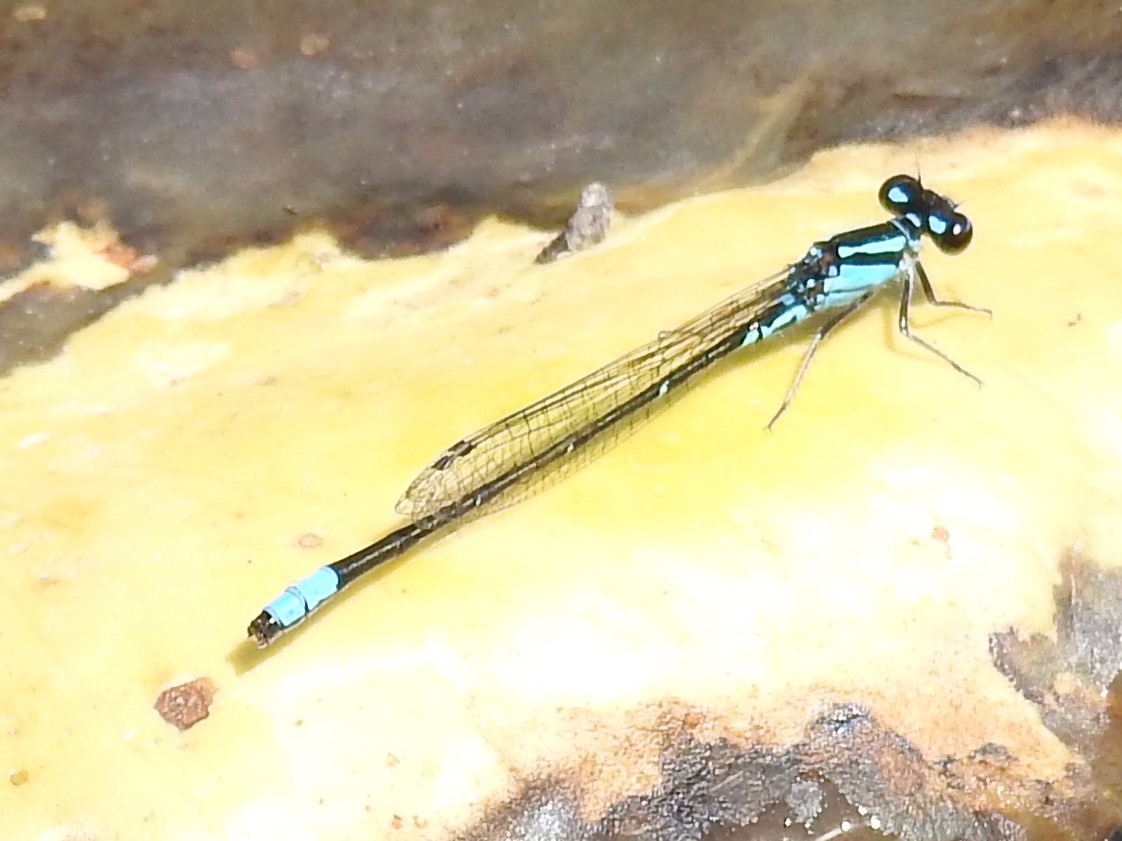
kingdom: Animalia
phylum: Arthropoda
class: Insecta
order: Odonata
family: Coenagrionidae
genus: Enallagma
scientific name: Enallagma geminatum
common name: Skimming bluet
